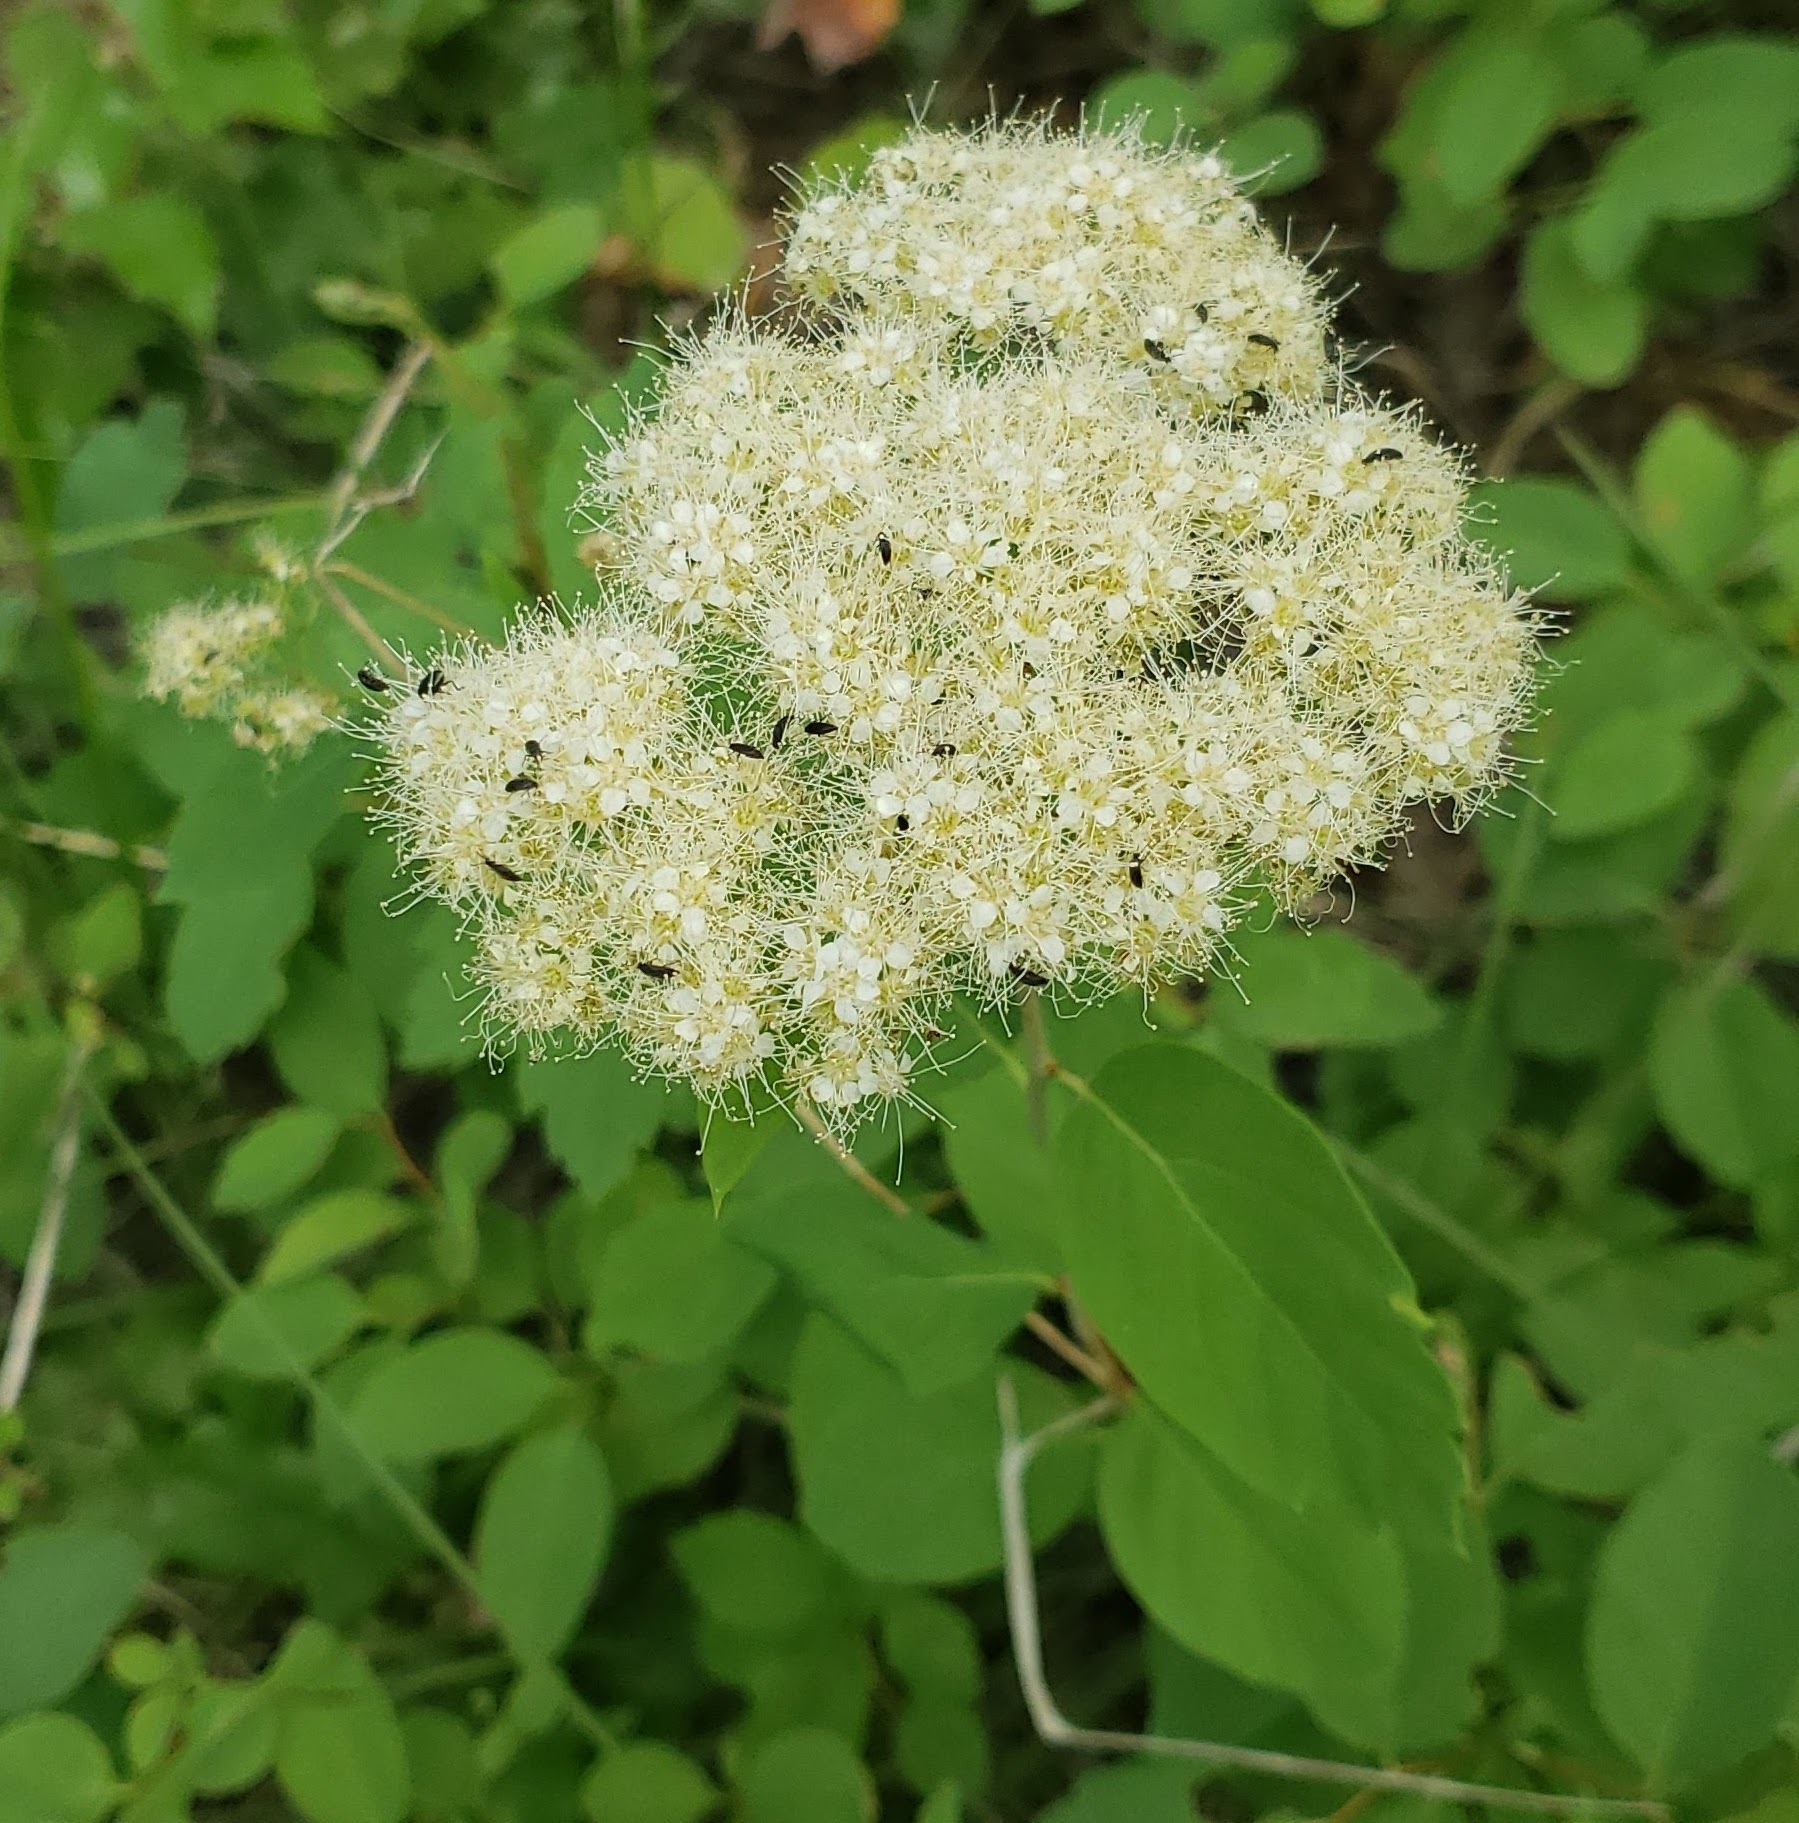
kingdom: Plantae
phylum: Tracheophyta
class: Magnoliopsida
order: Rosales
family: Rosaceae
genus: Spiraea
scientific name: Spiraea lucida
